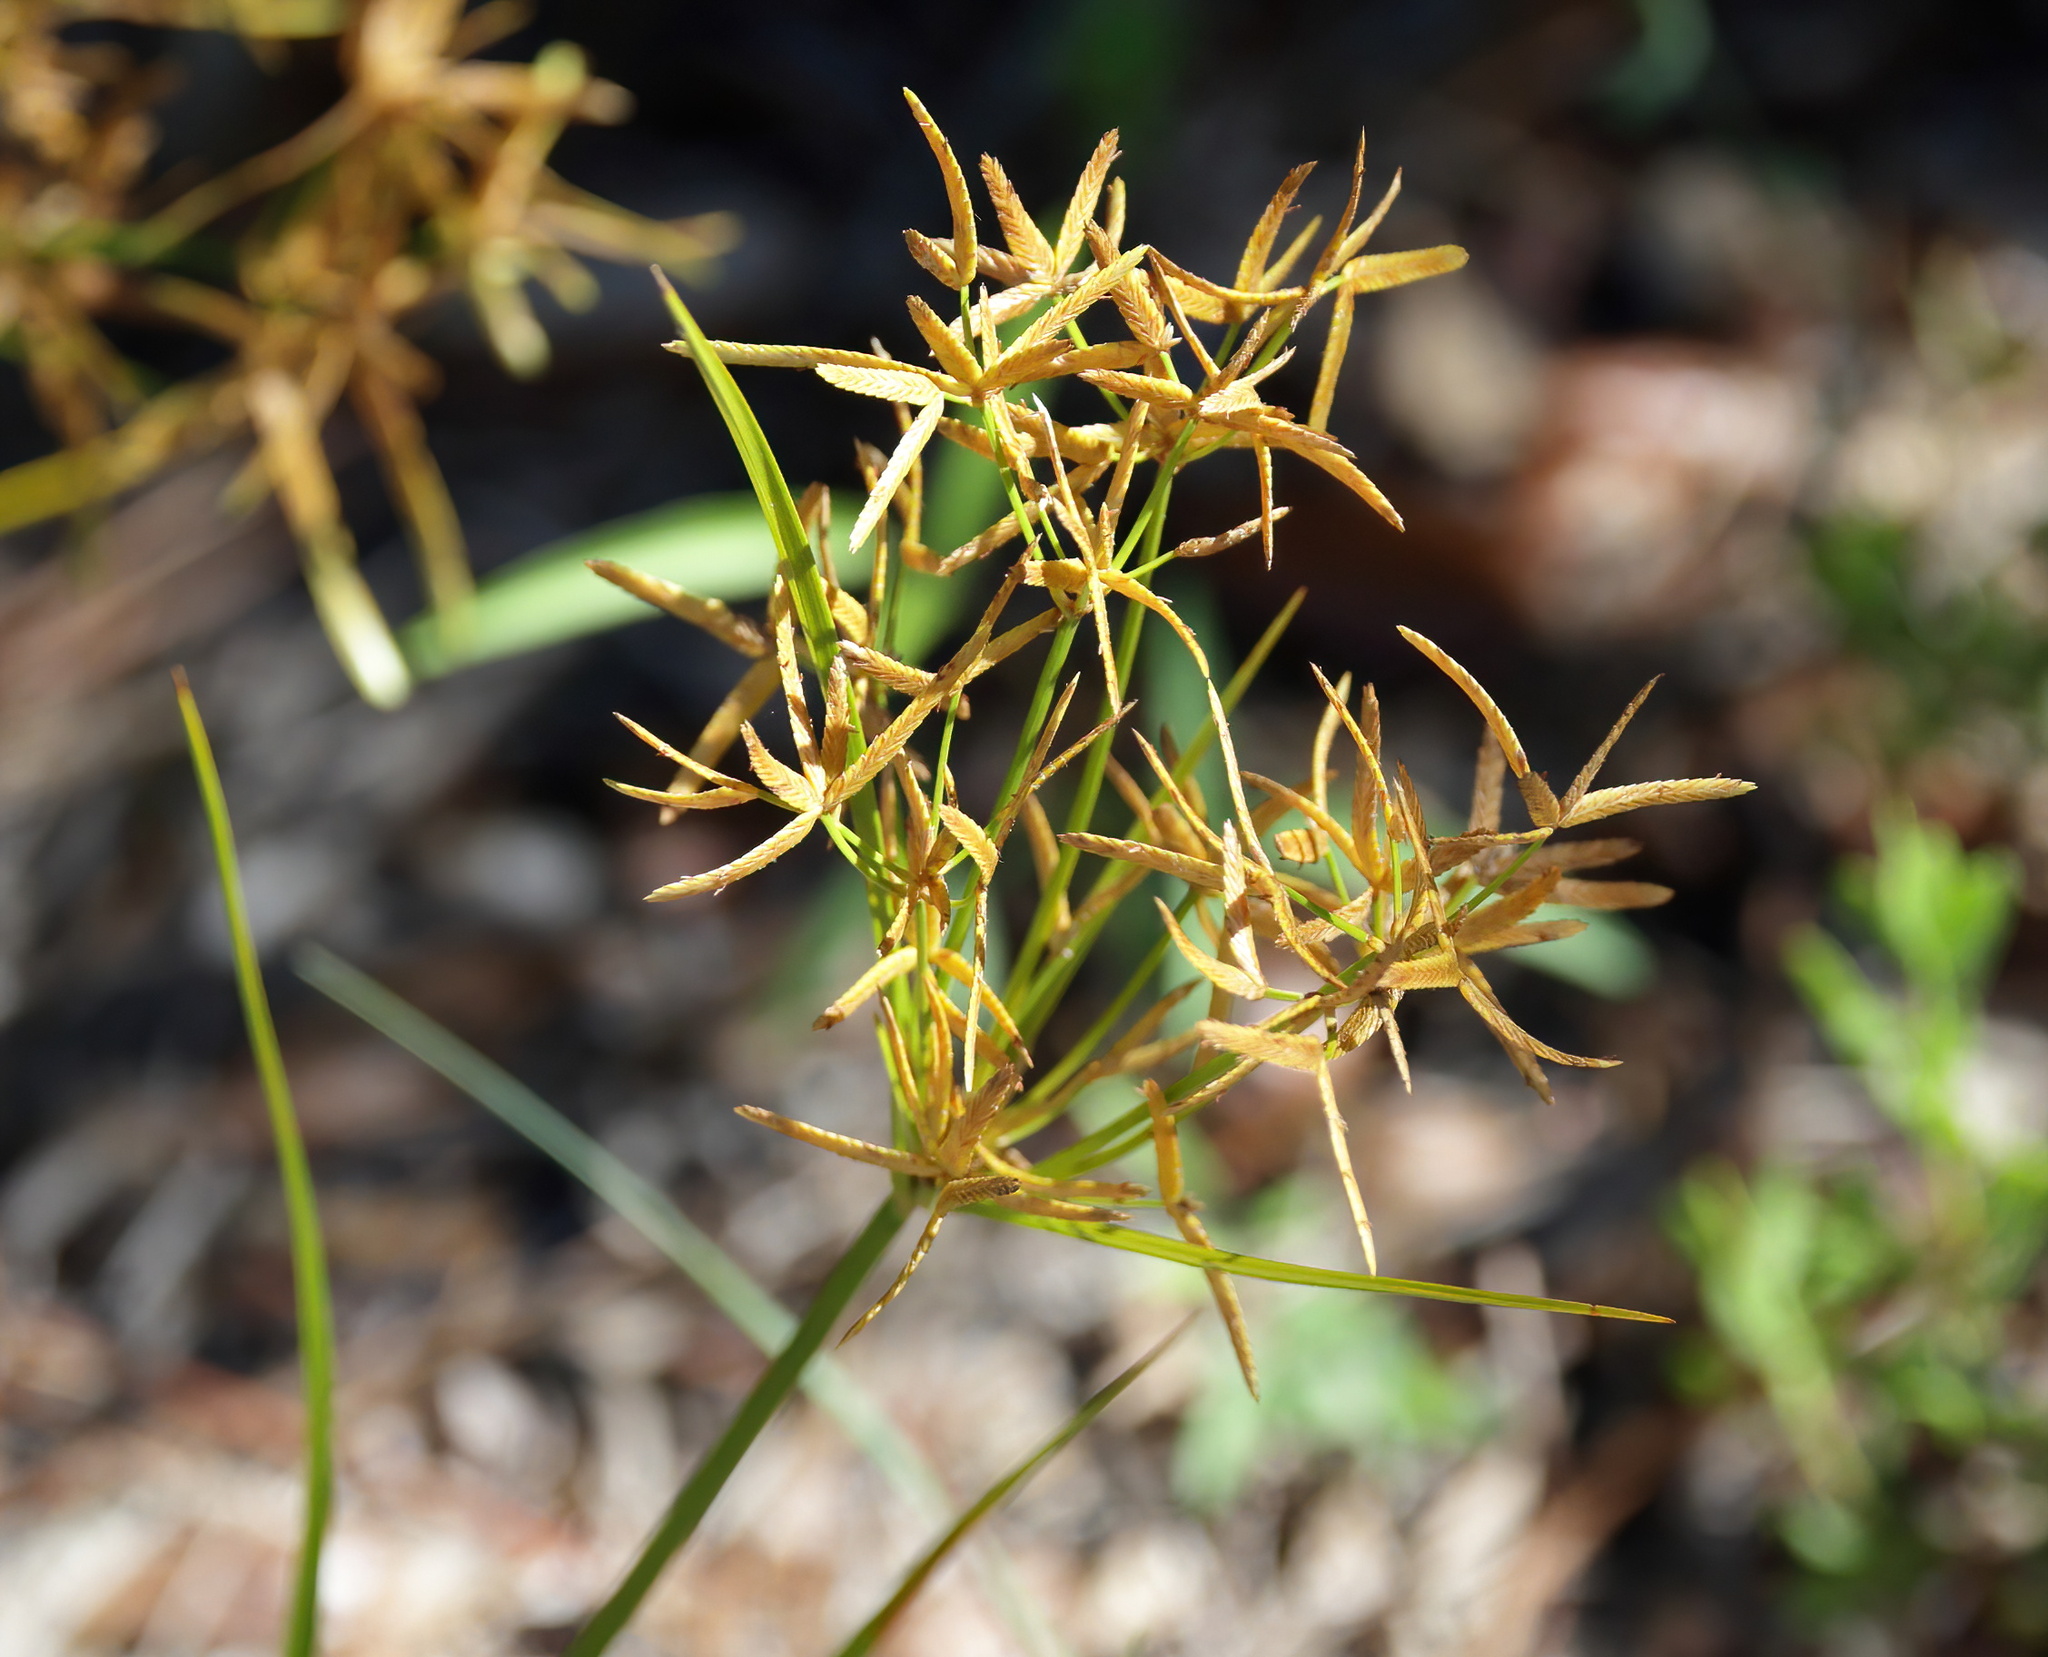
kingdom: Plantae
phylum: Tracheophyta
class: Liliopsida
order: Poales
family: Cyperaceae
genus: Cyperus
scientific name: Cyperus esculentus
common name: Yellow nutsedge
